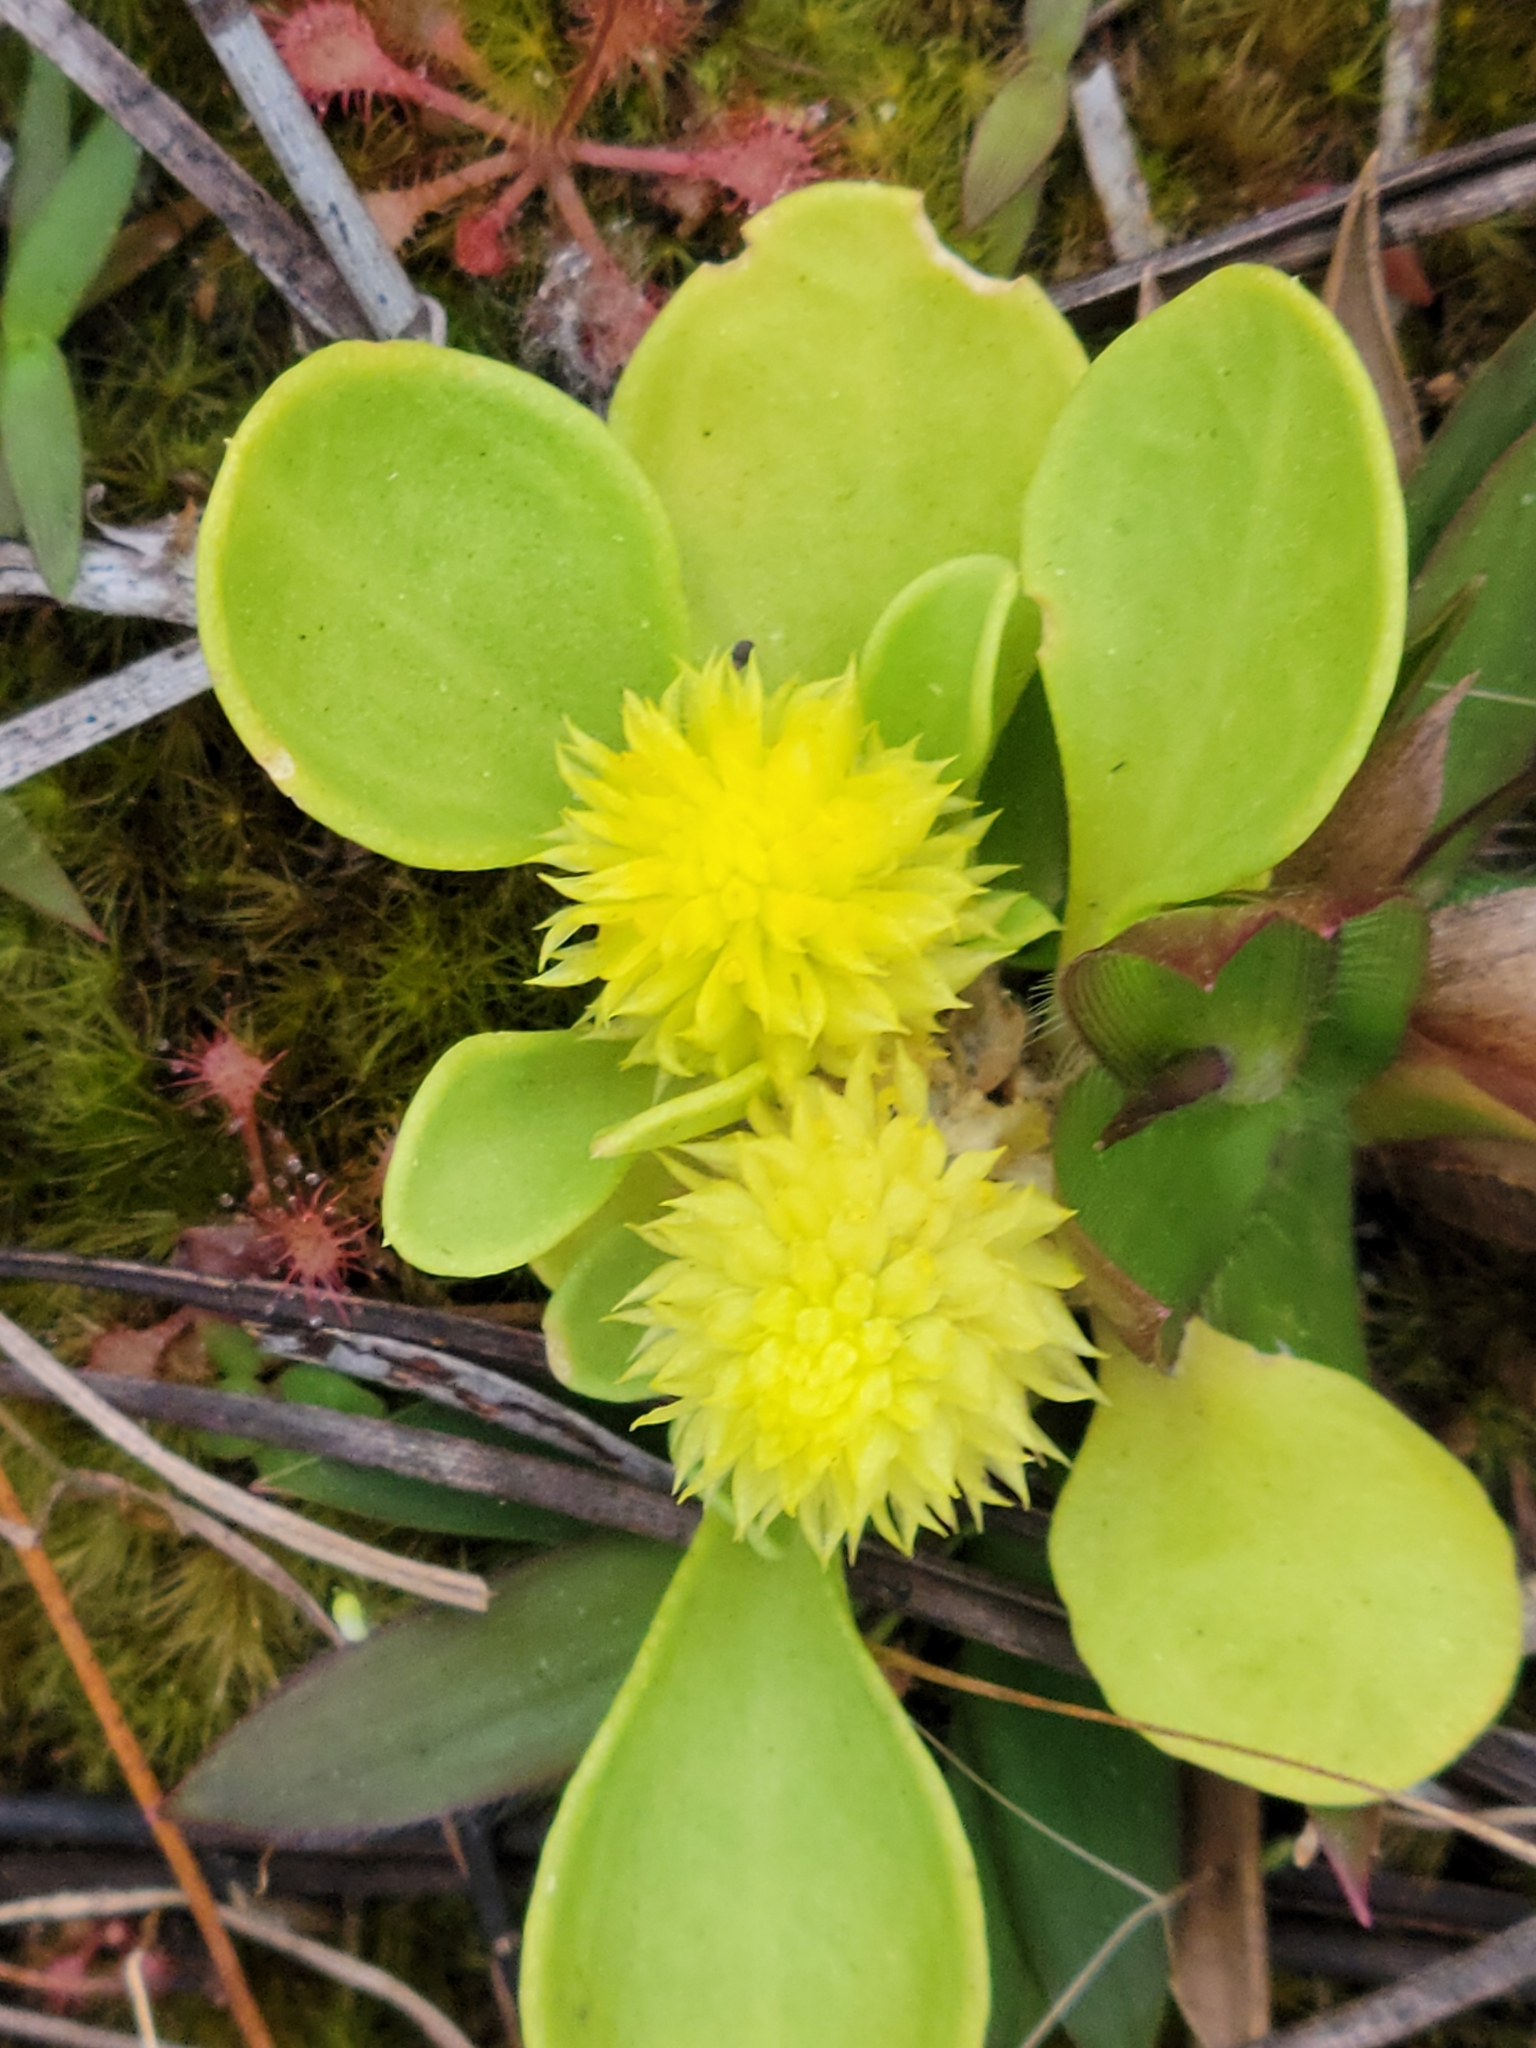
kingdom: Plantae
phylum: Tracheophyta
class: Magnoliopsida
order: Fabales
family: Polygalaceae
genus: Polygala
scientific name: Polygala nana
